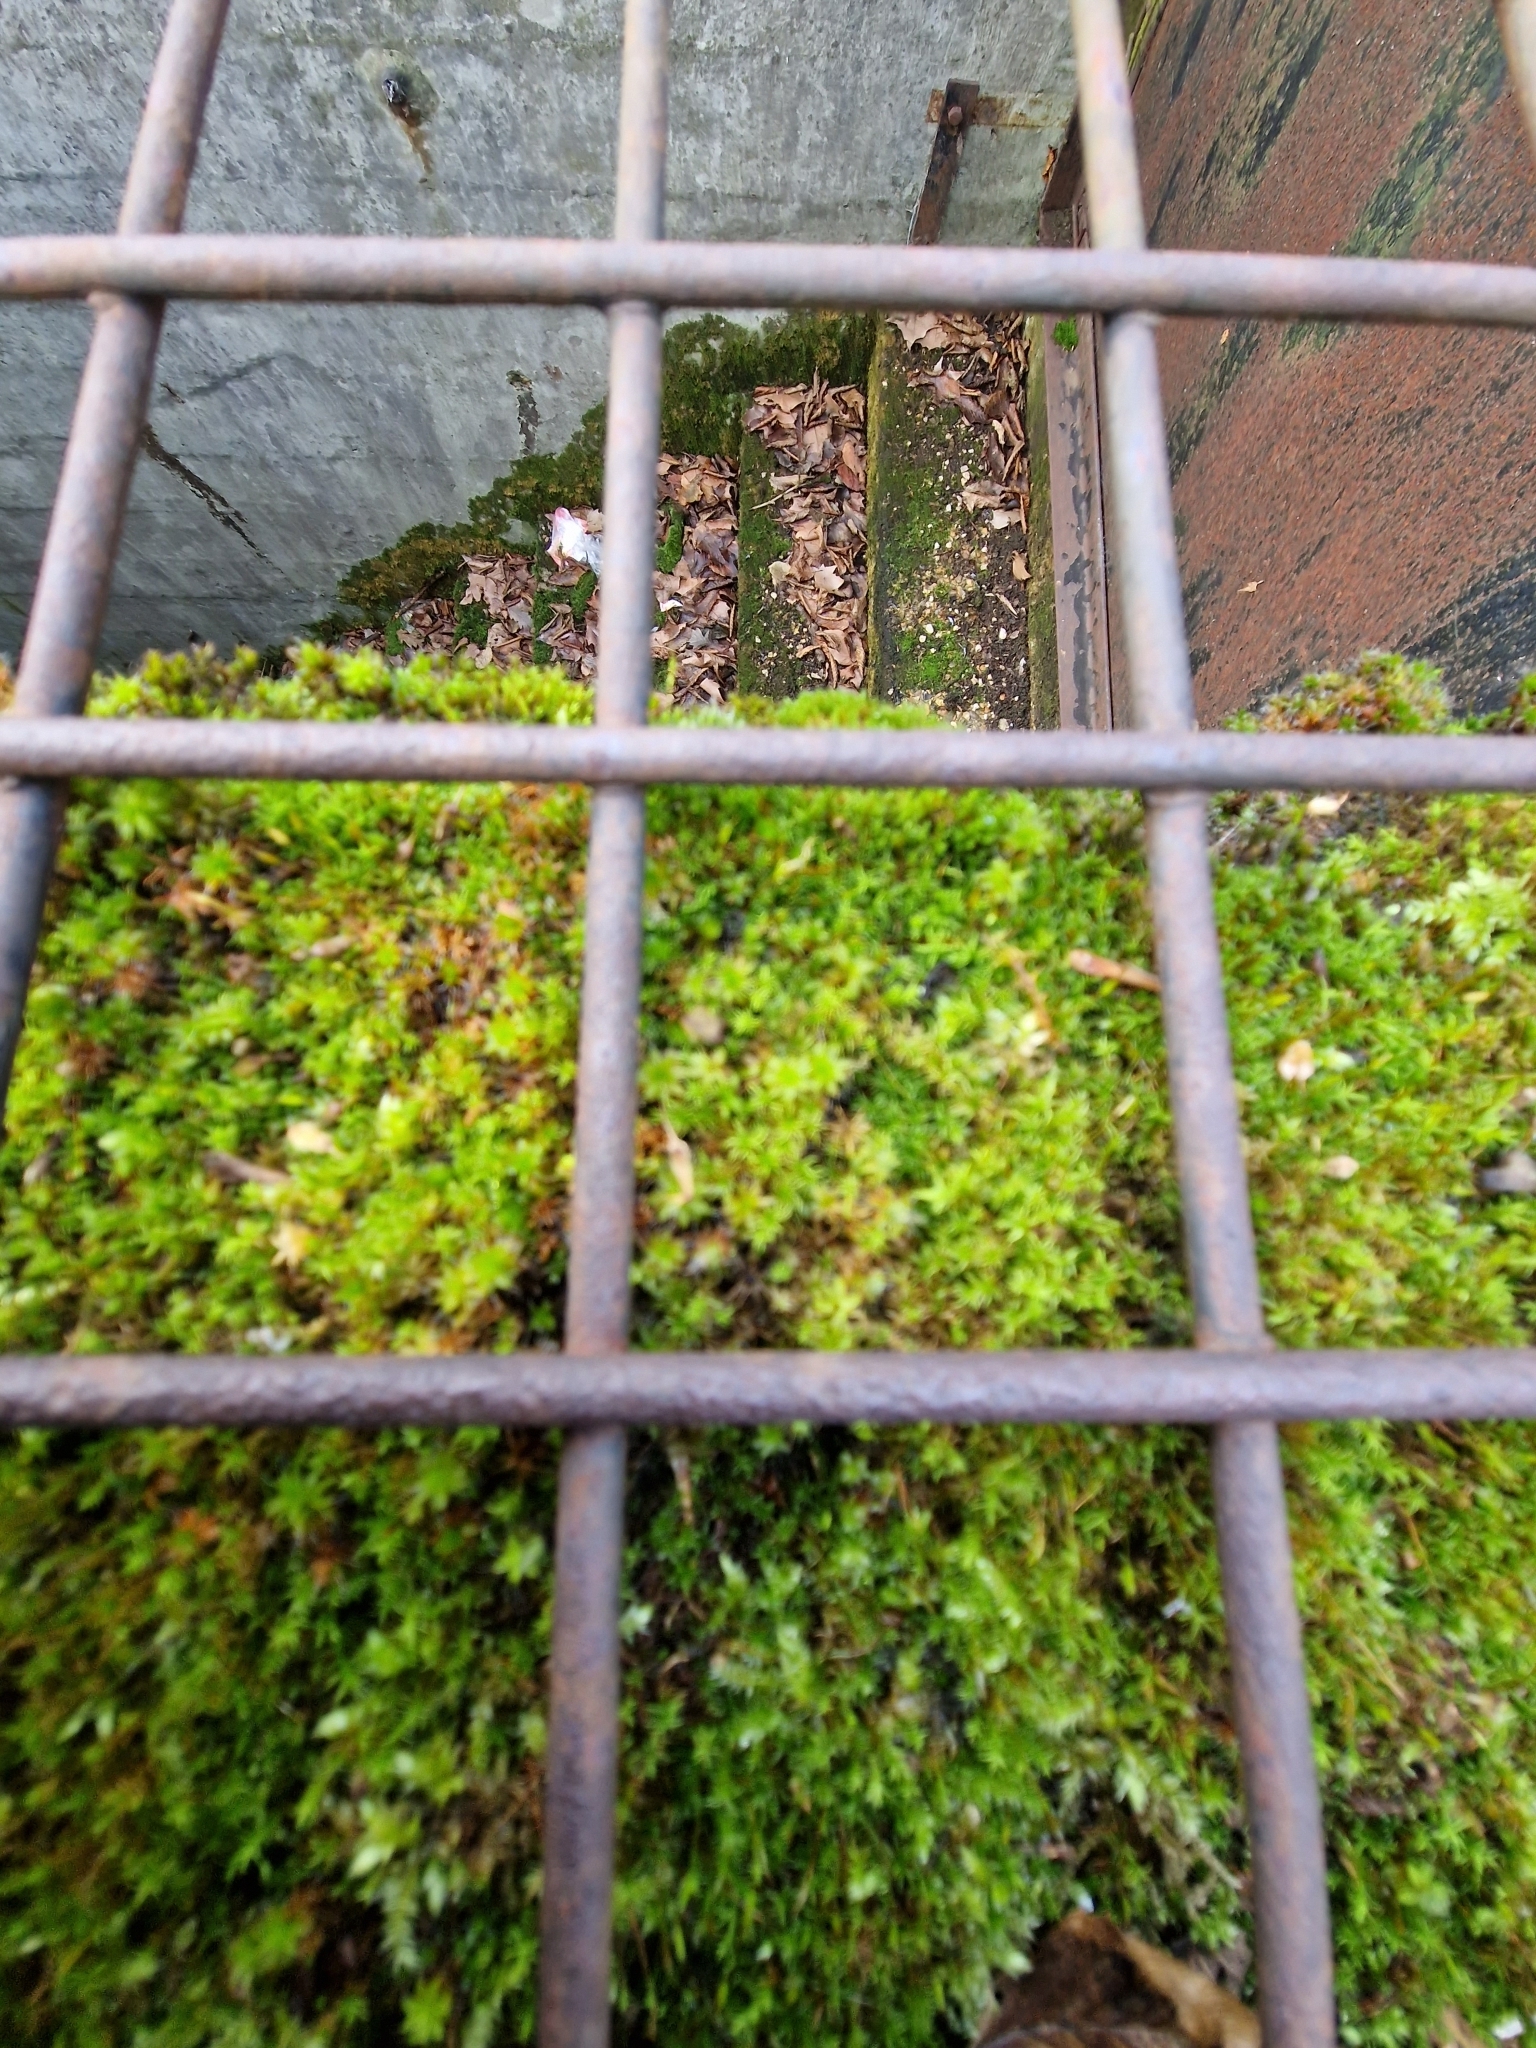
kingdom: Plantae
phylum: Bryophyta
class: Bryopsida
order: Pottiales
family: Pottiaceae
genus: Syntrichia
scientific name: Syntrichia ruralis
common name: Sidewalk screw moss
